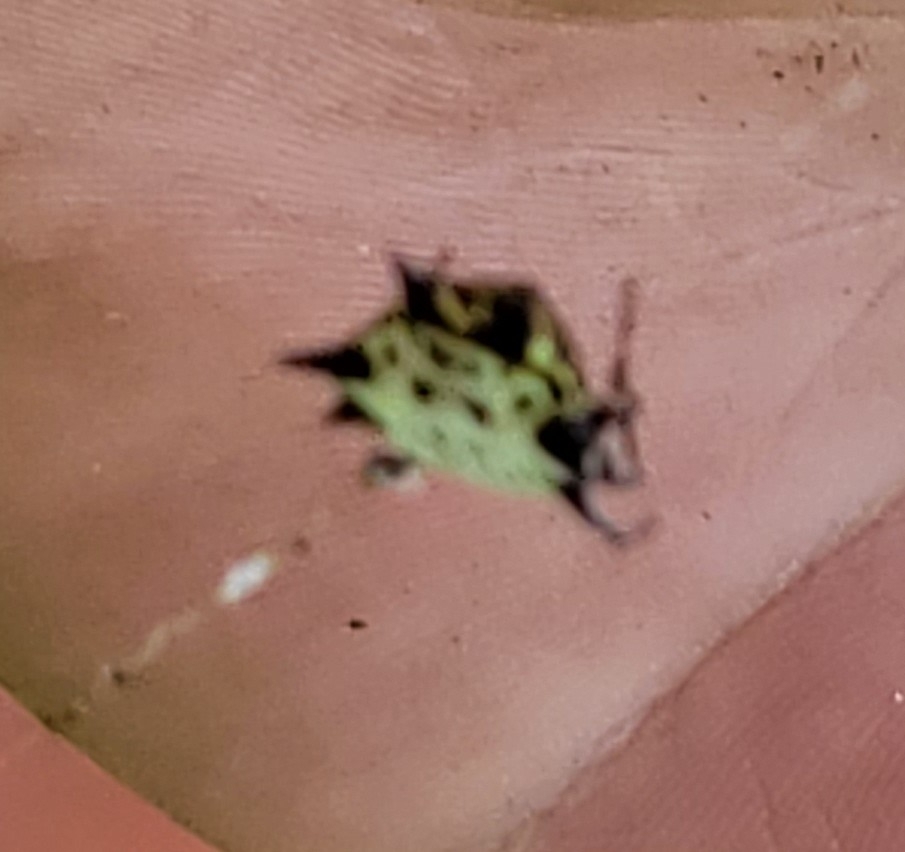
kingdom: Animalia
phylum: Arthropoda
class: Arachnida
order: Araneae
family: Araneidae
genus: Gasteracantha
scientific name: Gasteracantha cancriformis
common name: Orb weavers
